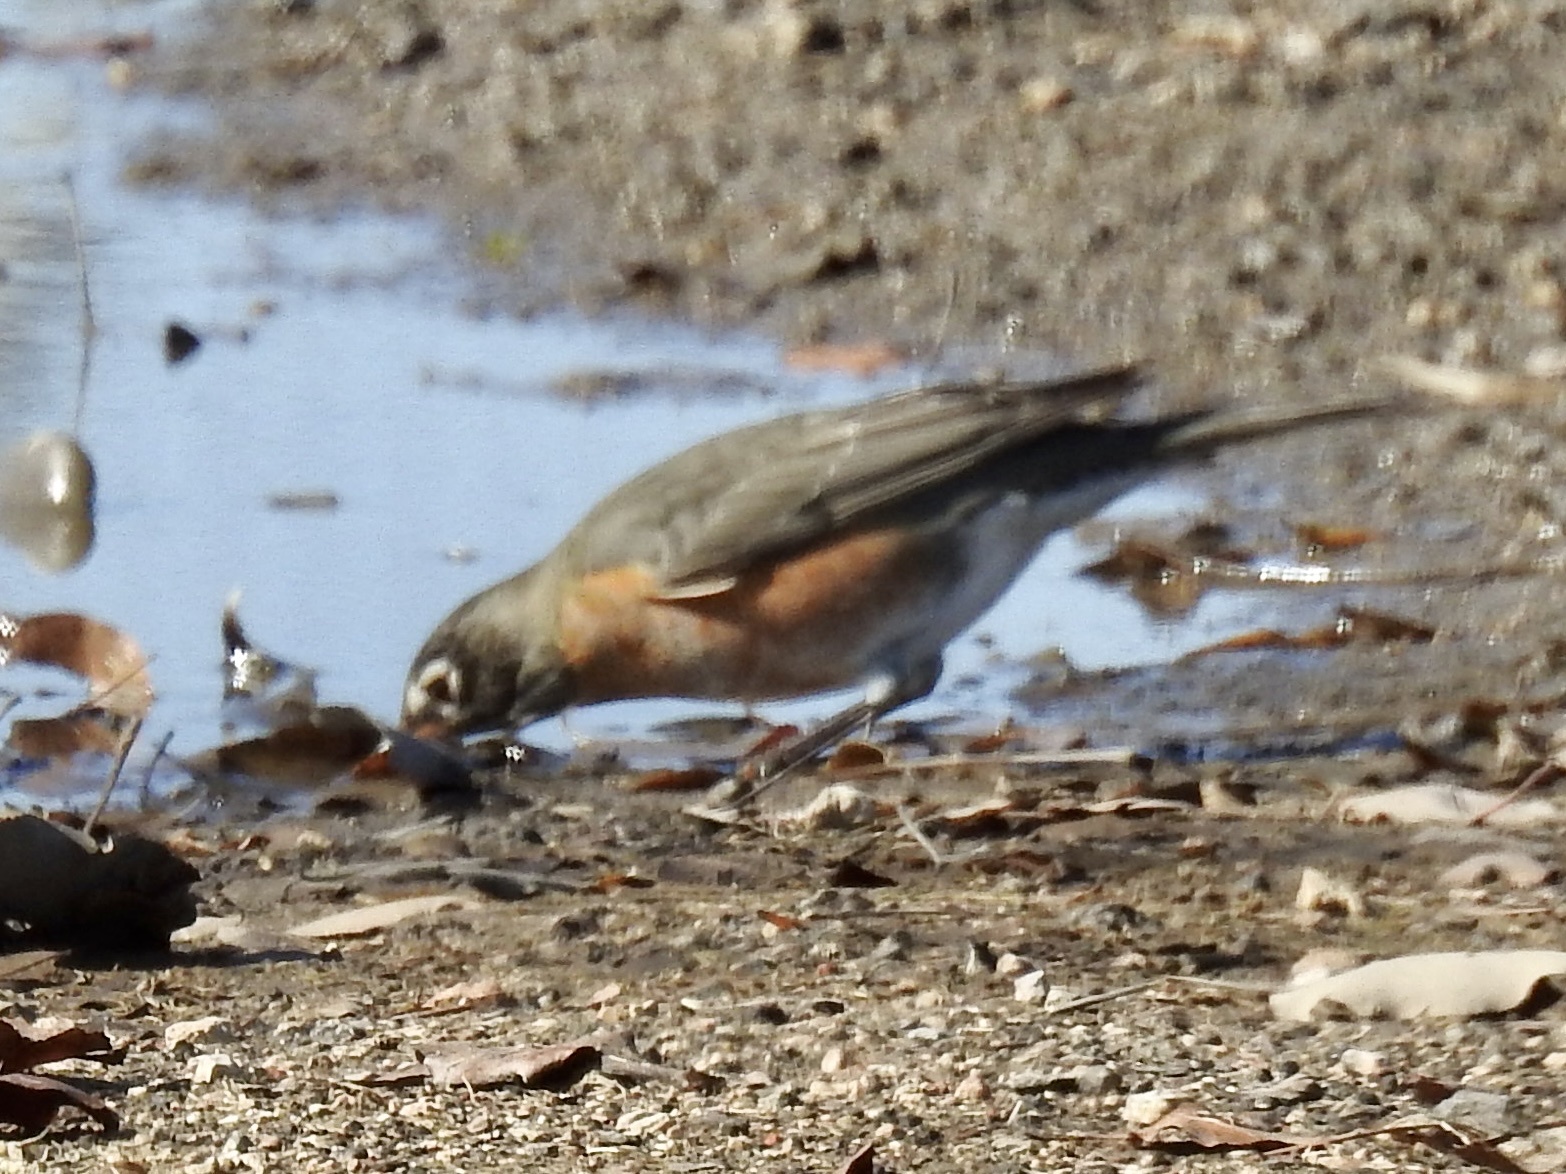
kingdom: Animalia
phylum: Chordata
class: Aves
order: Passeriformes
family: Turdidae
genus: Turdus
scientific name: Turdus migratorius
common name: American robin
